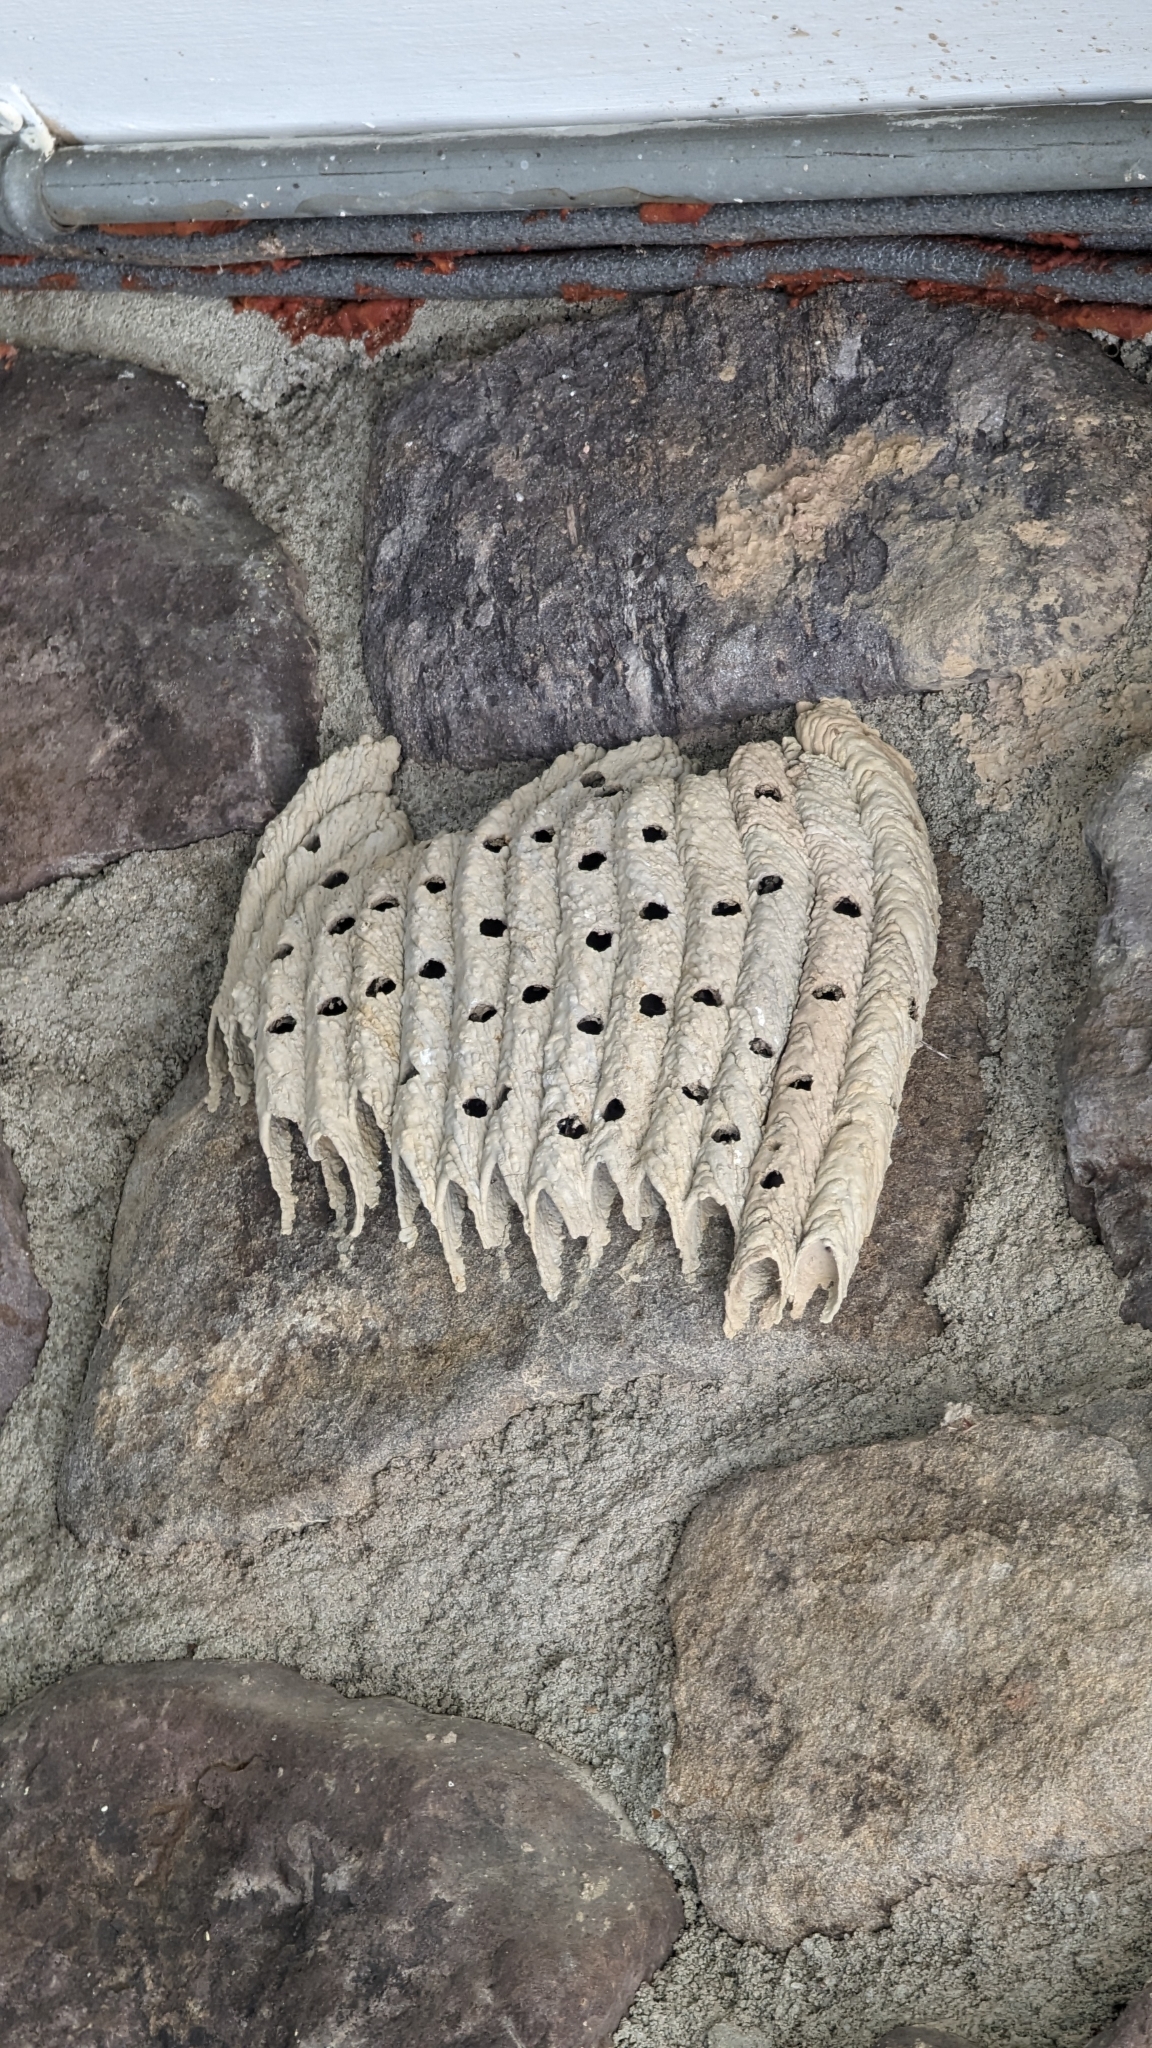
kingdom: Animalia
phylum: Arthropoda
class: Insecta
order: Hymenoptera
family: Crabronidae
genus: Trypoxylon
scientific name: Trypoxylon politum
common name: Organ-pipe mud-dauber wasp
